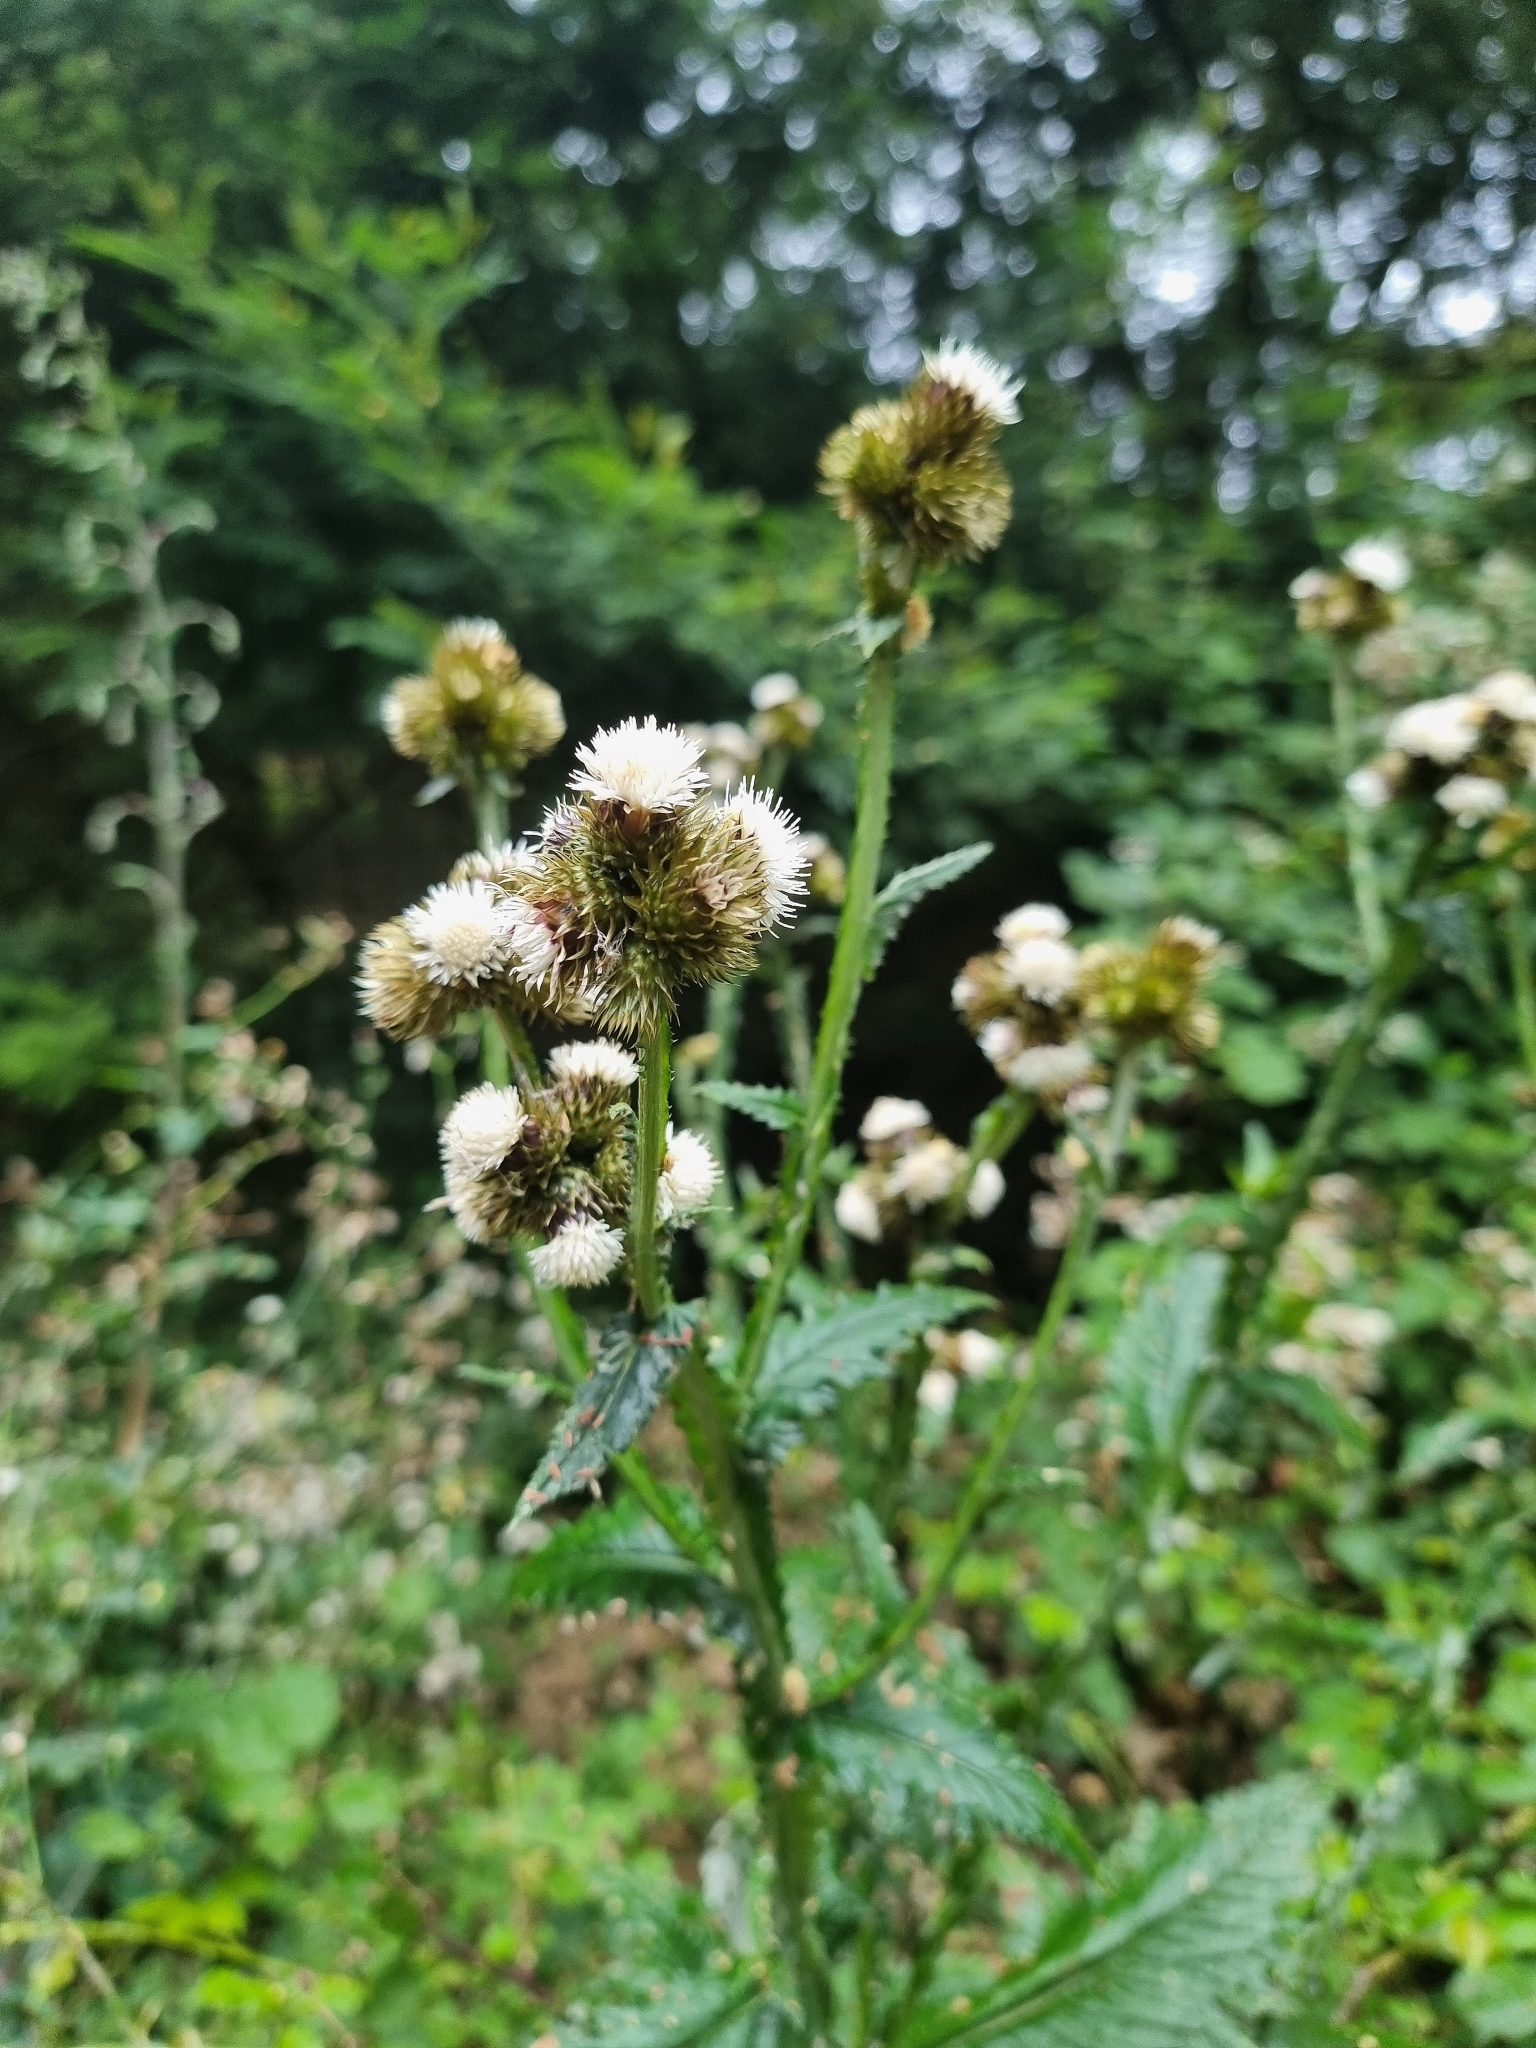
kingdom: Plantae
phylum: Tracheophyta
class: Magnoliopsida
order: Asterales
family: Asteraceae
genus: Carduus
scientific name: Carduus squarrosus
